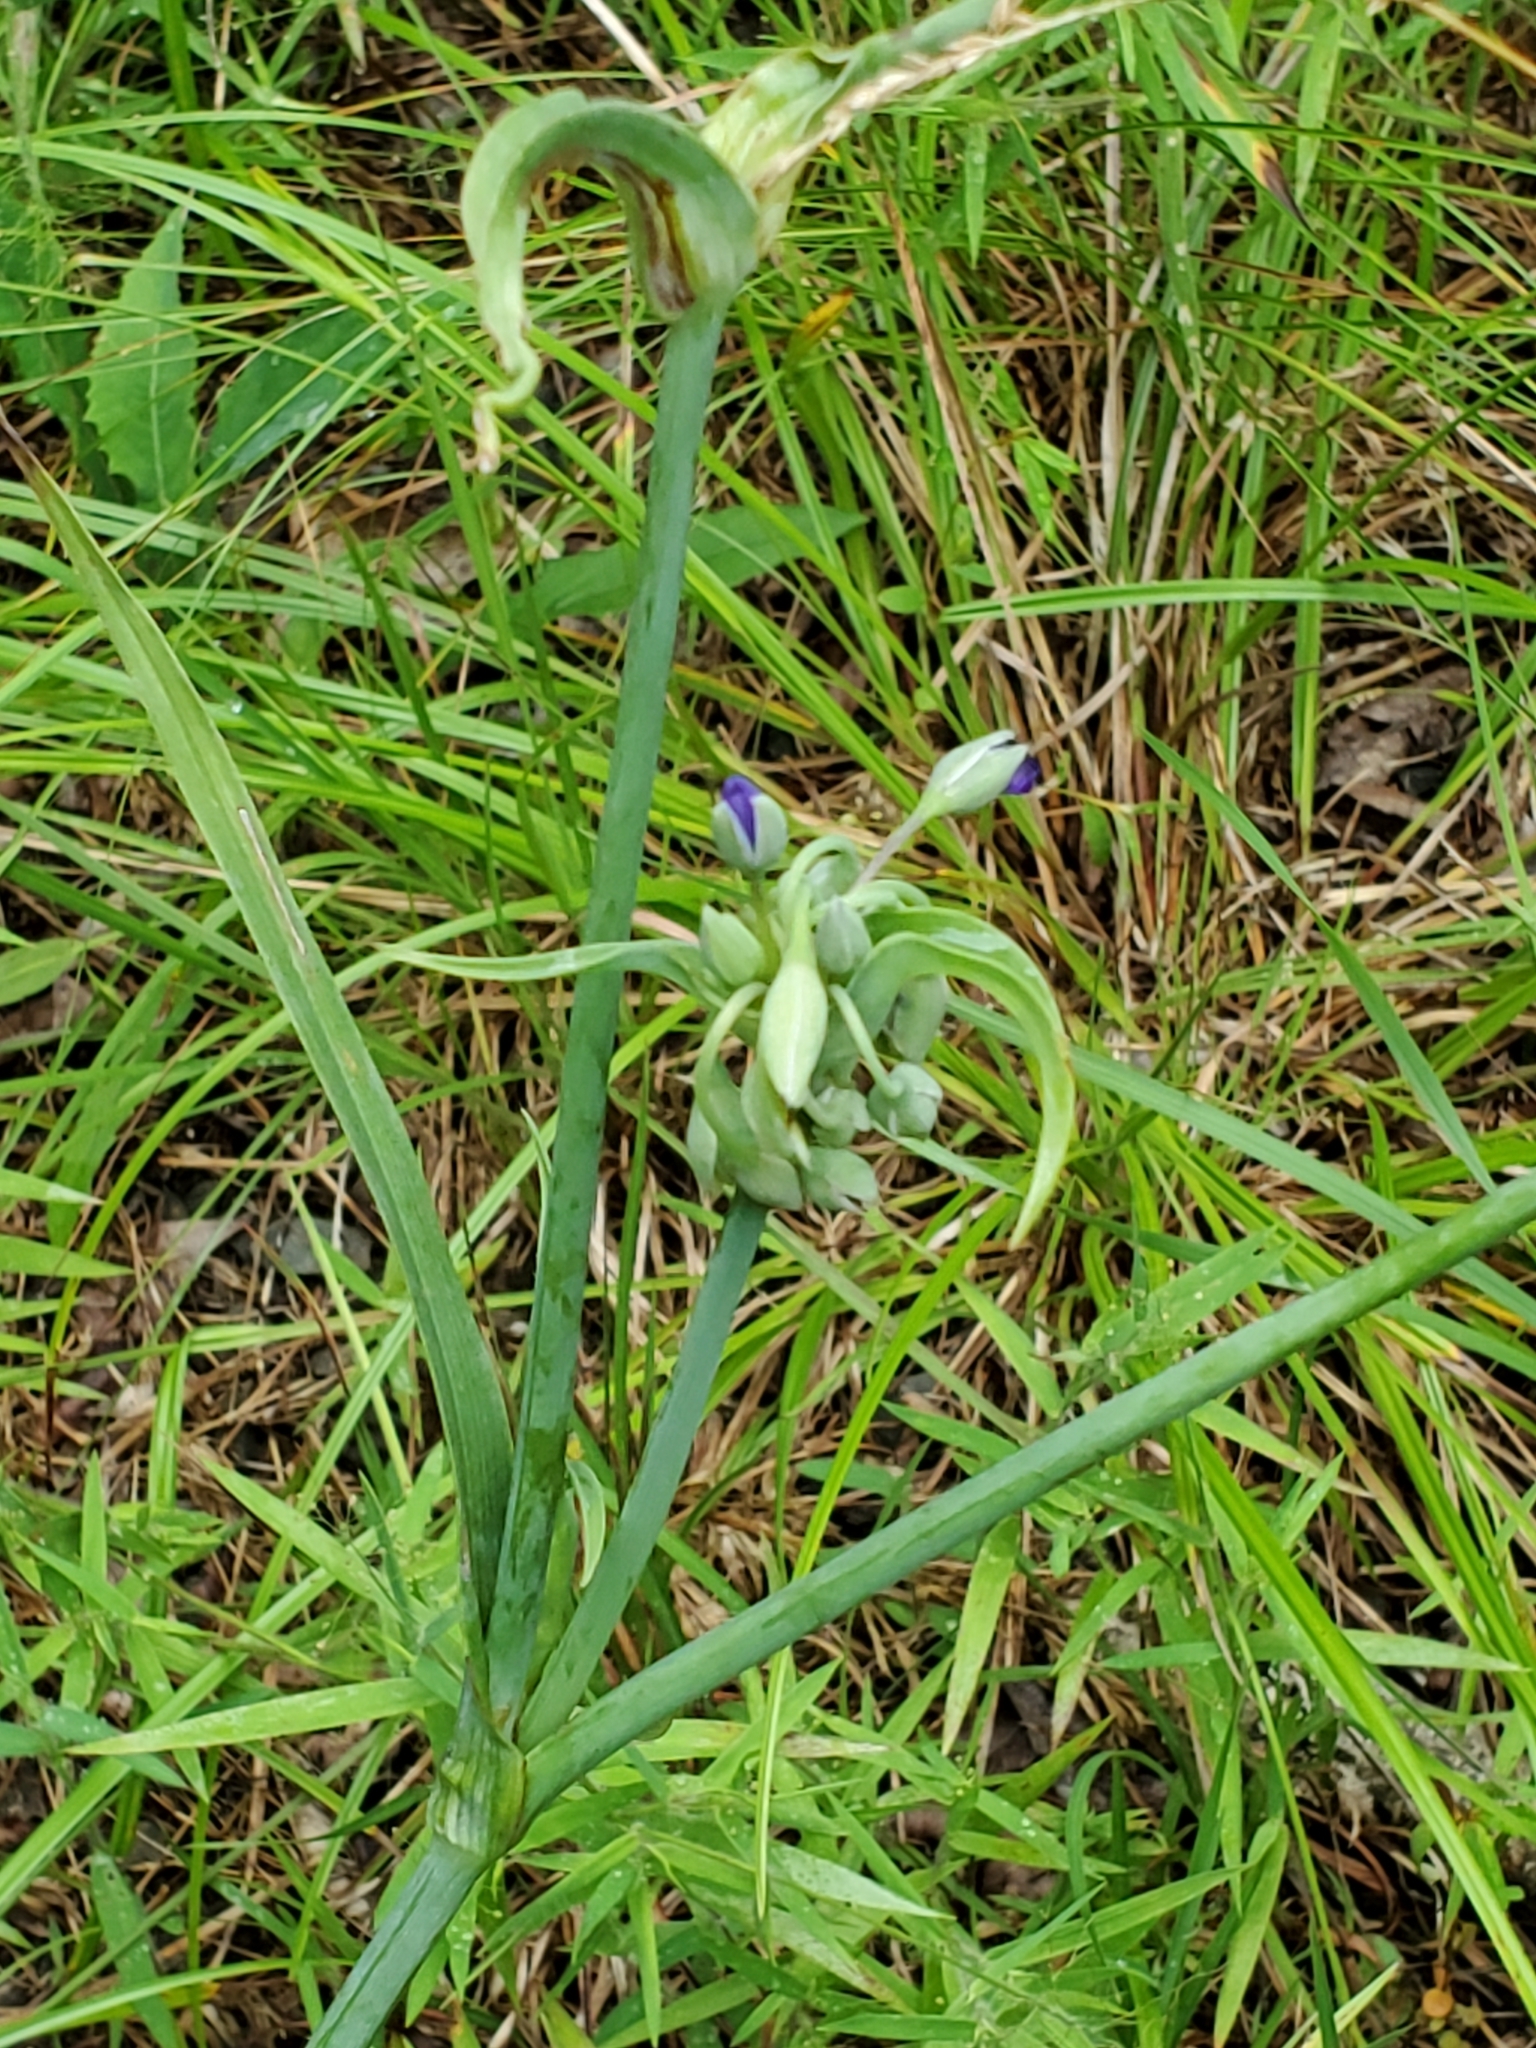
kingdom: Plantae
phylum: Tracheophyta
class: Liliopsida
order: Commelinales
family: Commelinaceae
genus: Tradescantia
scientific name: Tradescantia ohiensis
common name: Ohio spiderwort
